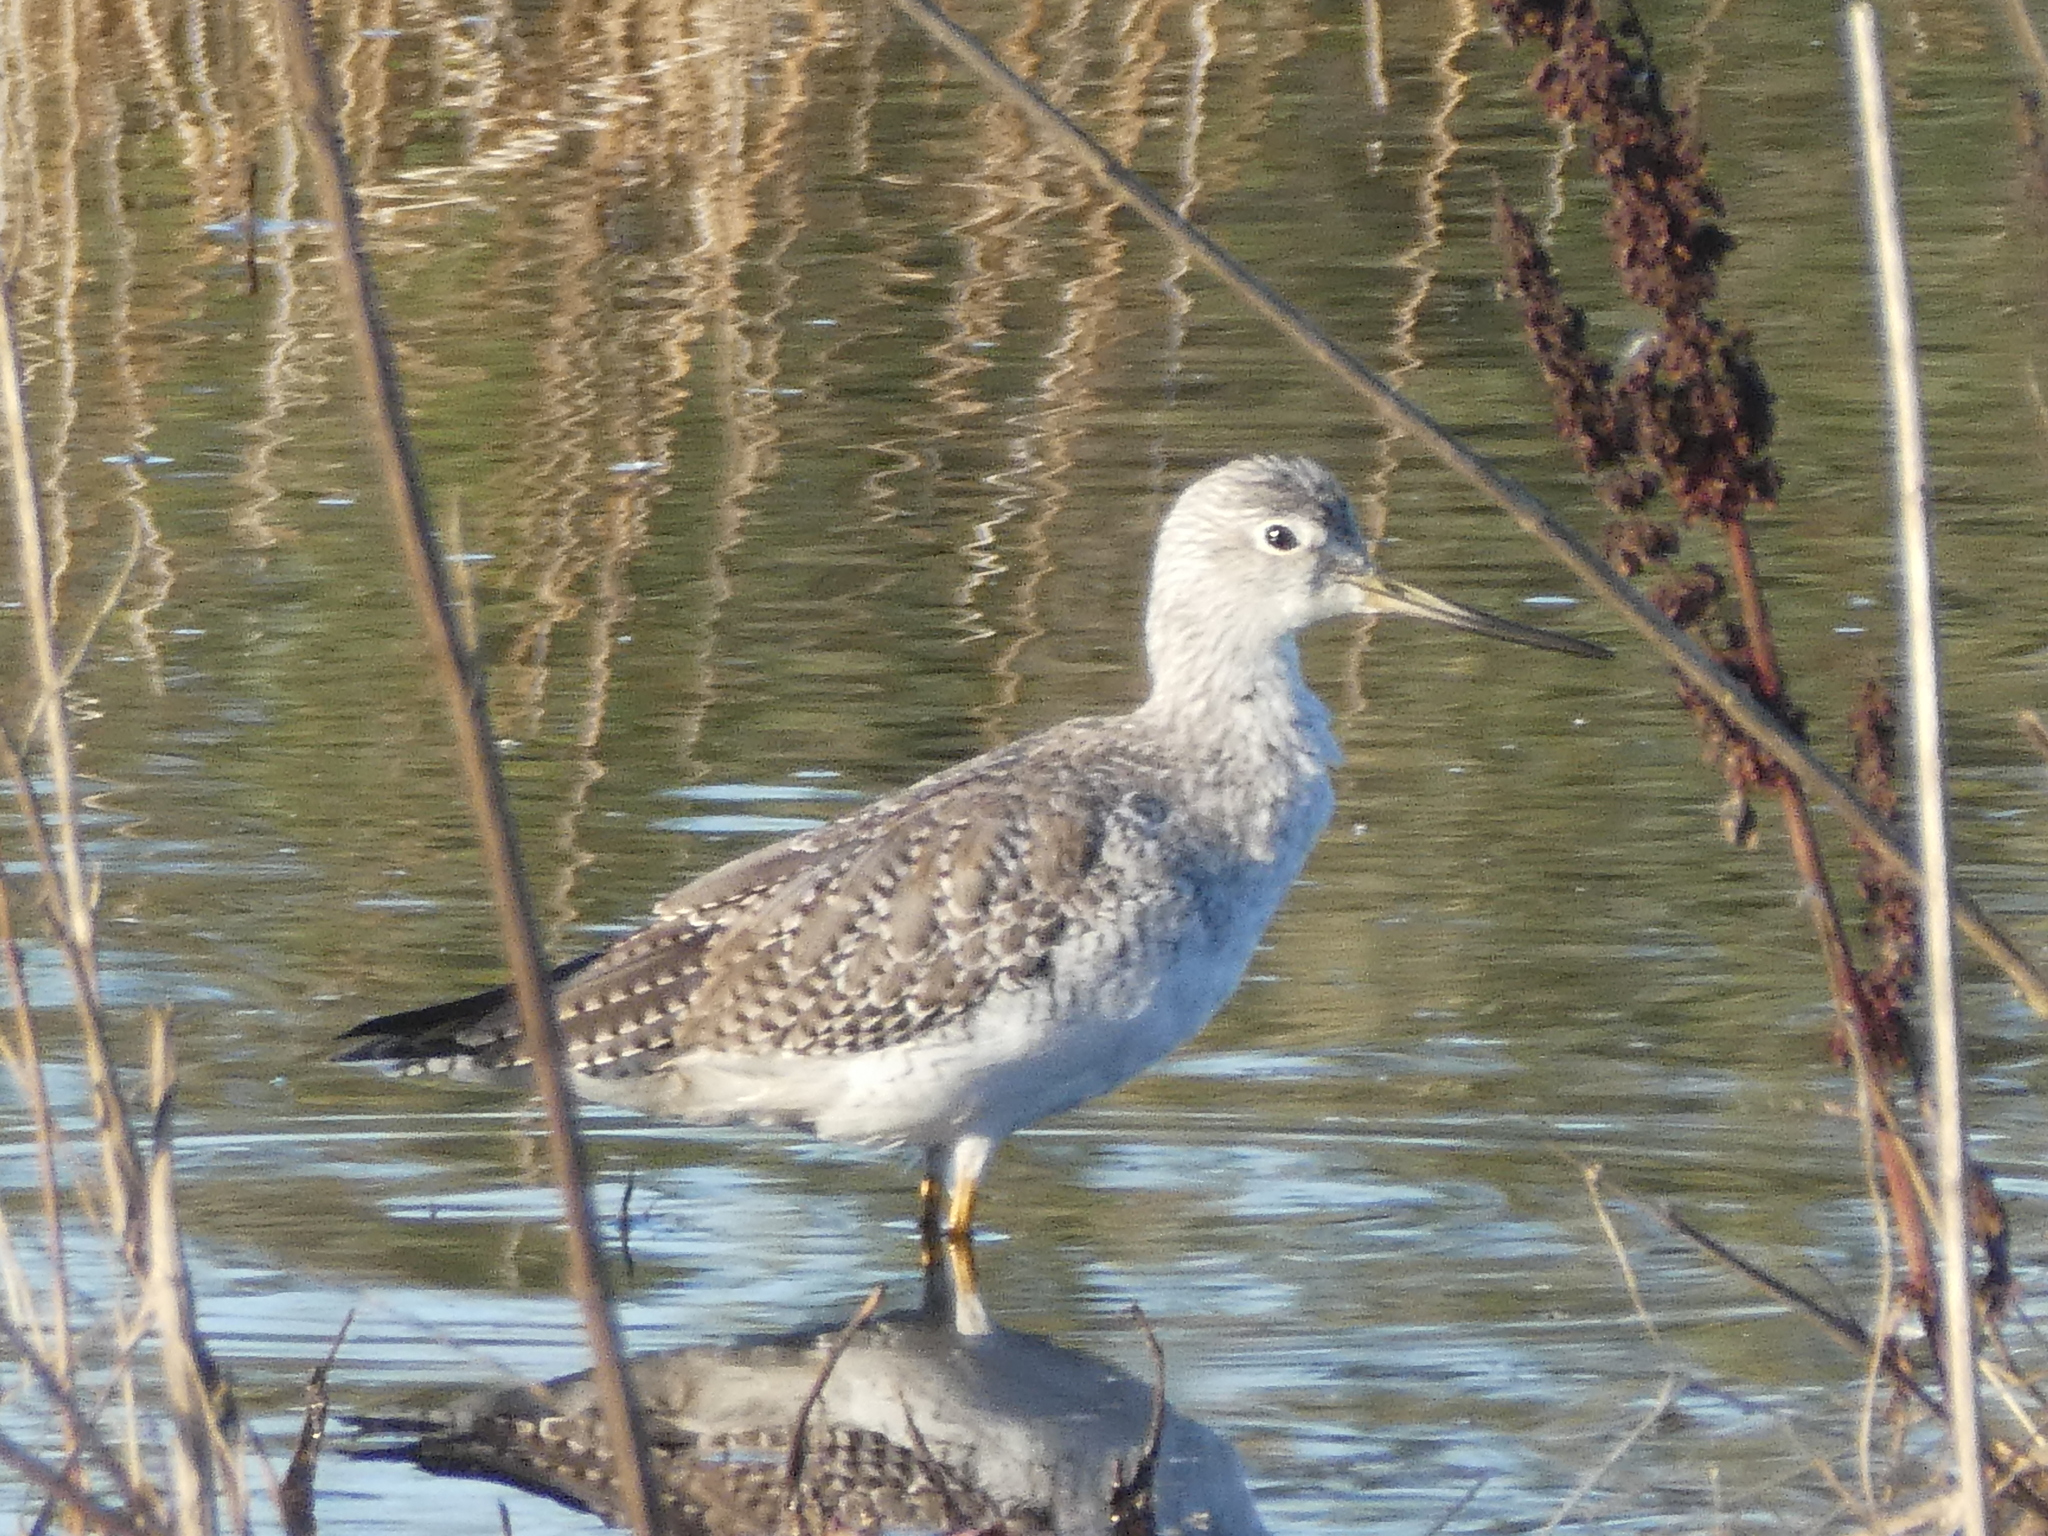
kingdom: Animalia
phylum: Chordata
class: Aves
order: Charadriiformes
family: Scolopacidae
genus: Tringa
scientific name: Tringa melanoleuca
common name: Greater yellowlegs
